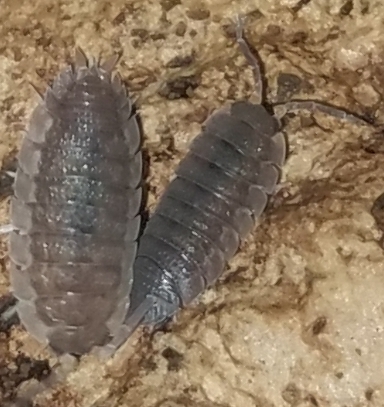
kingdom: Animalia
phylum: Arthropoda
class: Malacostraca
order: Isopoda
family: Porcellionidae
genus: Porcellio
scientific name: Porcellio scaber
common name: Common rough woodlouse
